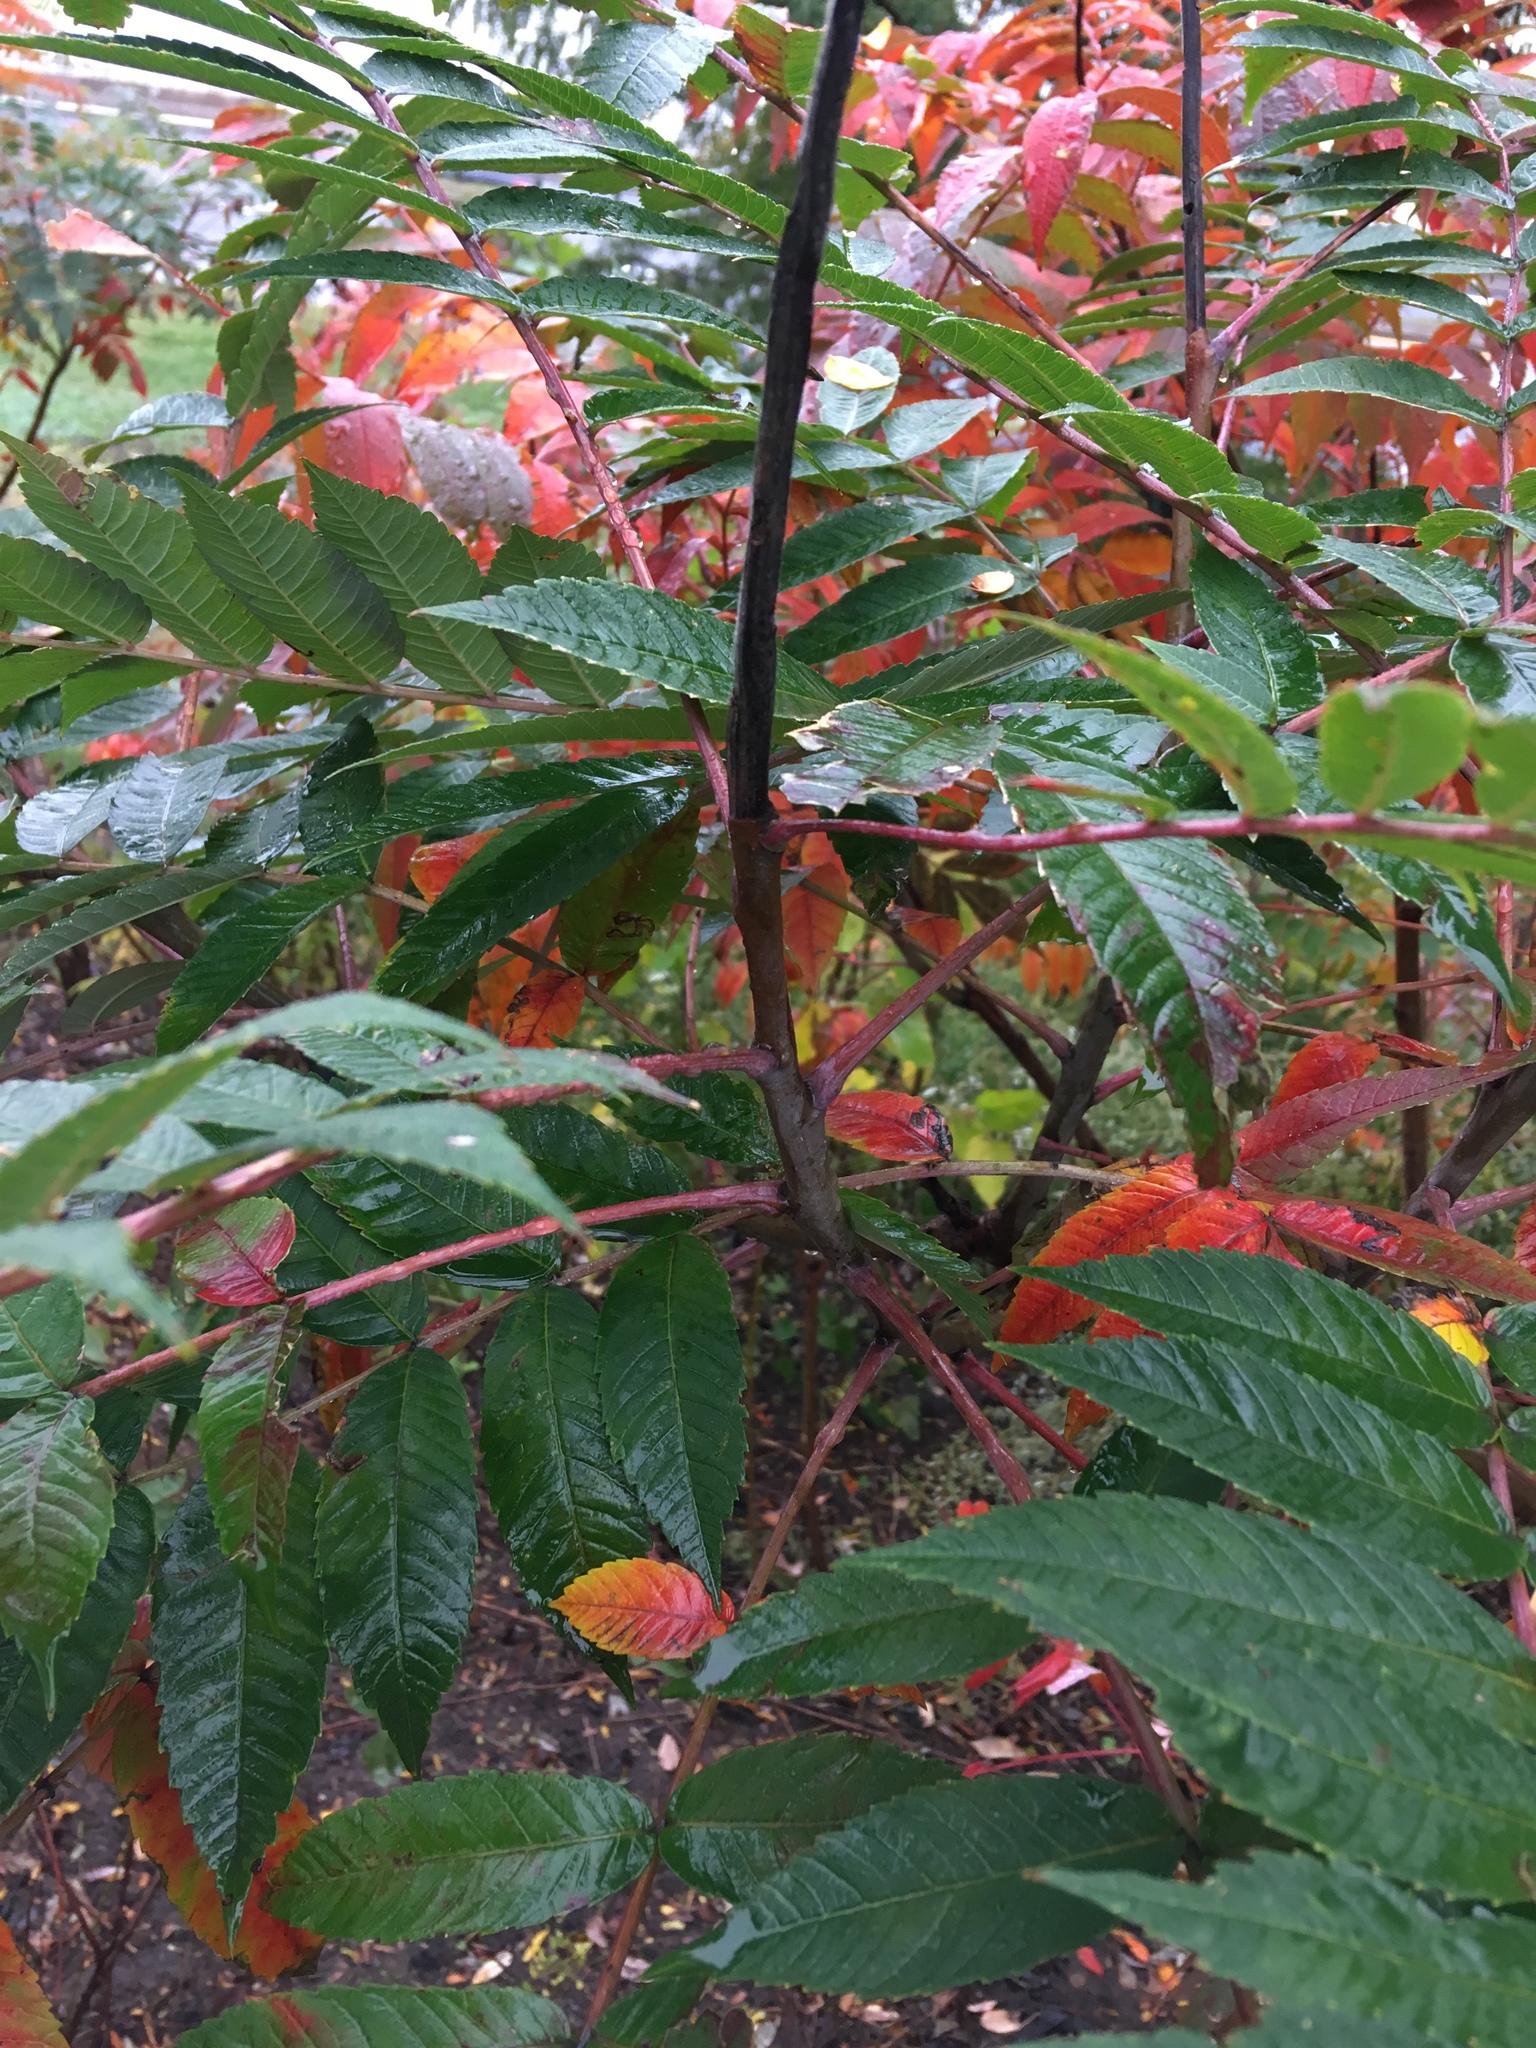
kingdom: Plantae
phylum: Tracheophyta
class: Magnoliopsida
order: Sapindales
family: Anacardiaceae
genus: Rhus
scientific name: Rhus glabra
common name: Scarlet sumac
